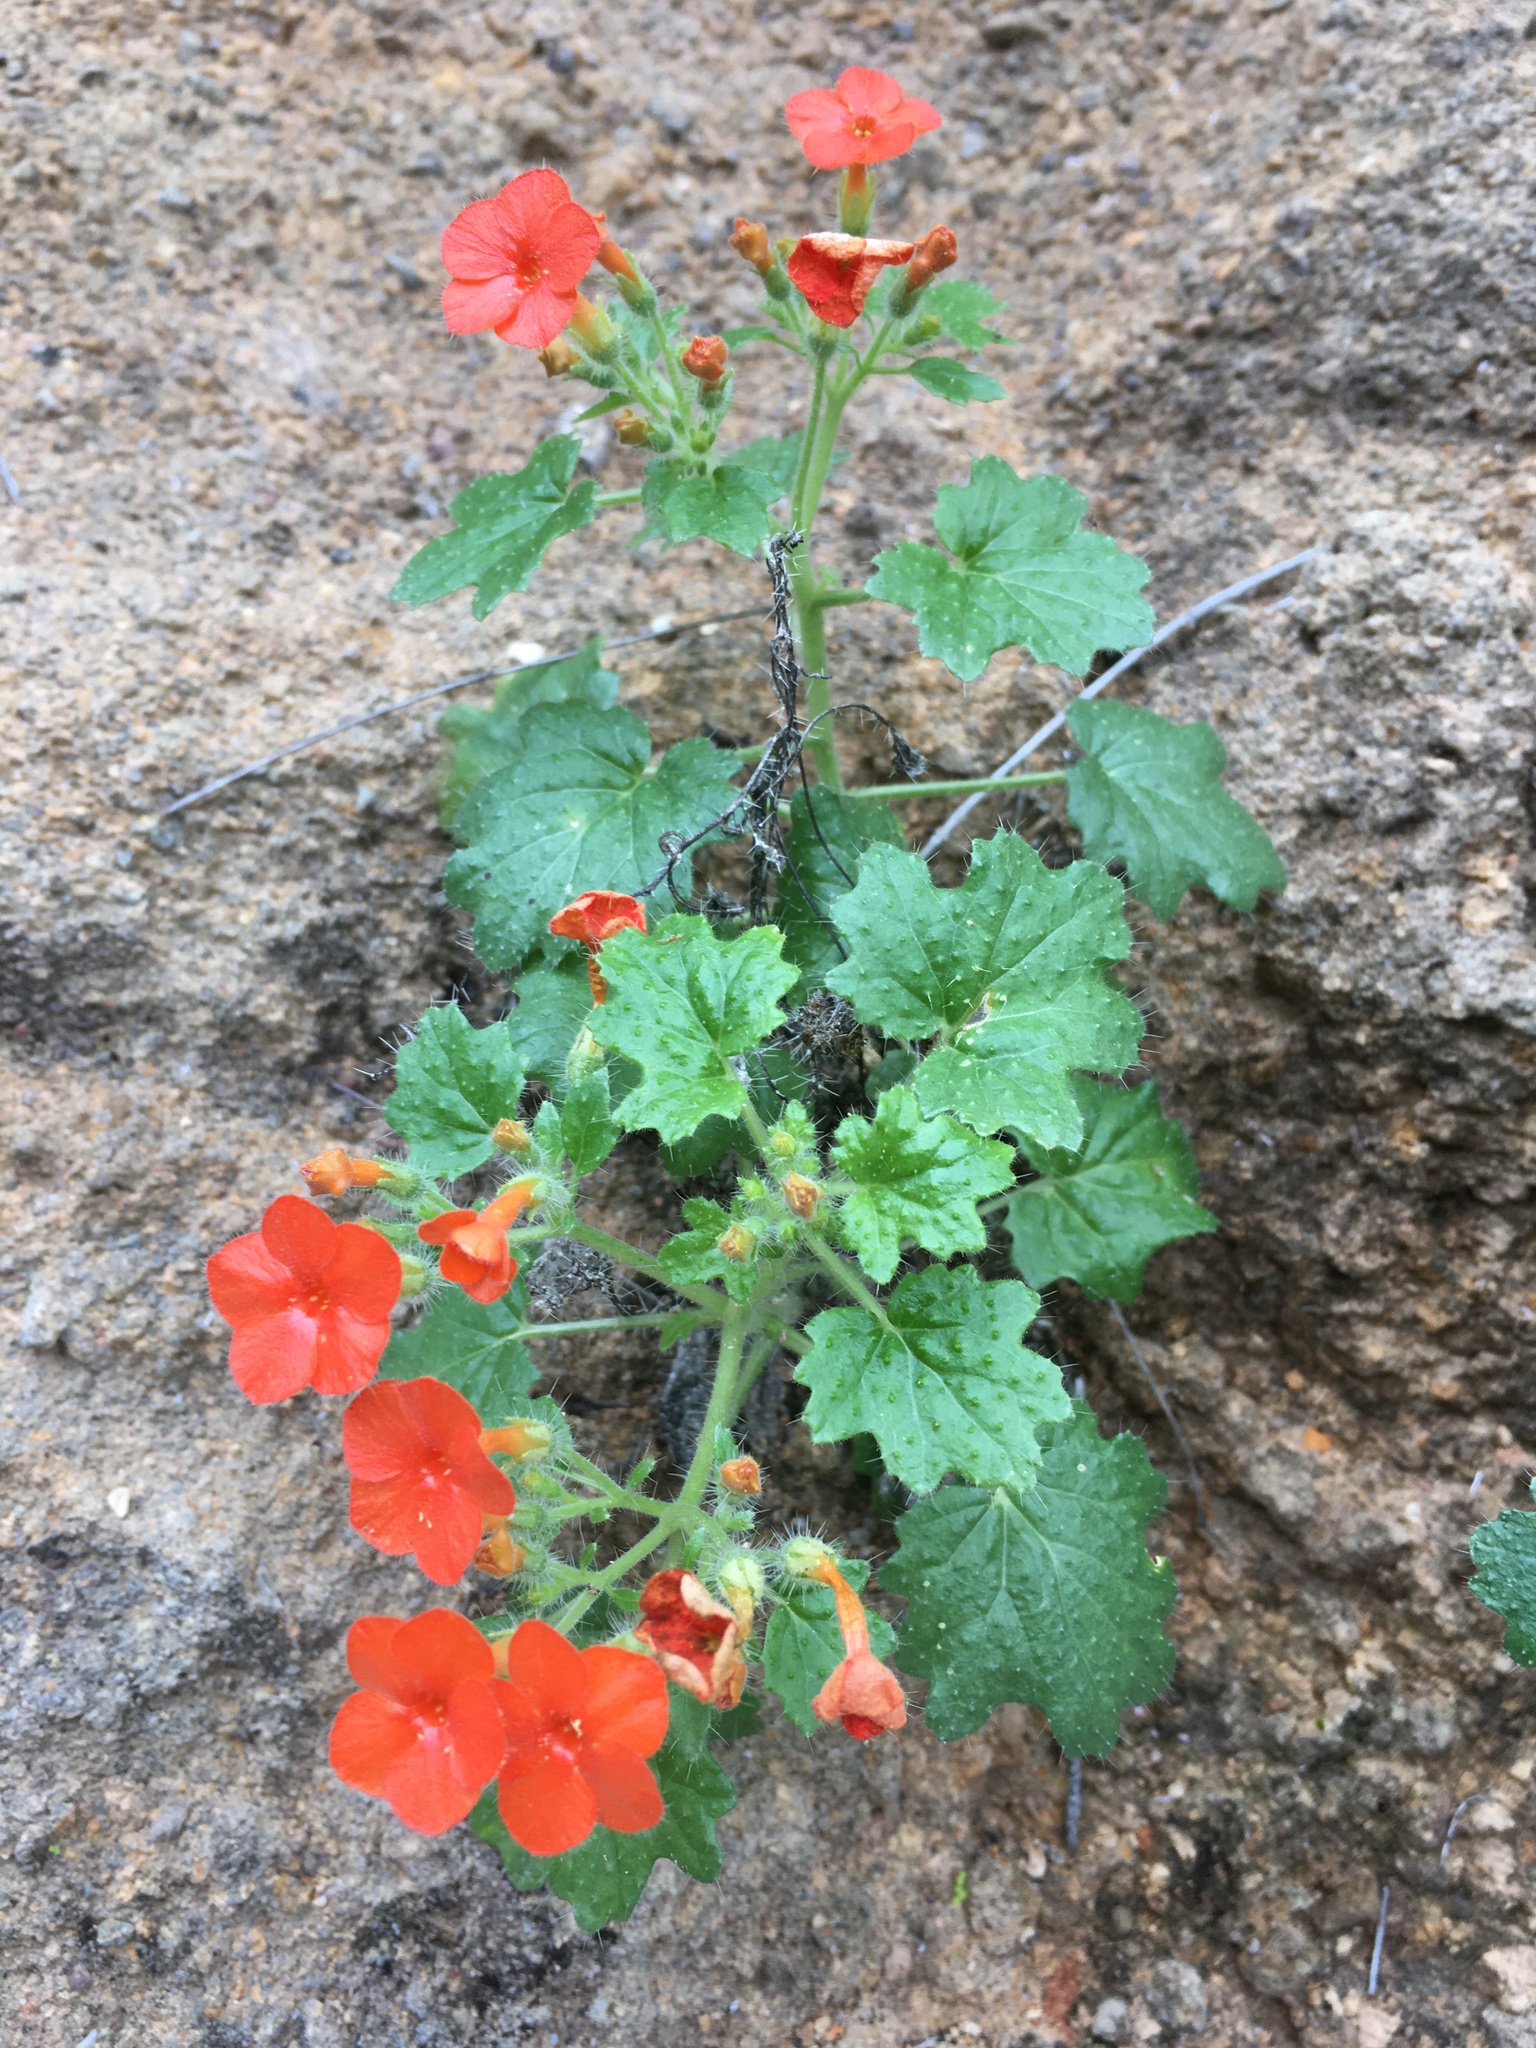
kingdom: Plantae
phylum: Tracheophyta
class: Magnoliopsida
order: Cornales
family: Loasaceae
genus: Eucnide
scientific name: Eucnide aurea
